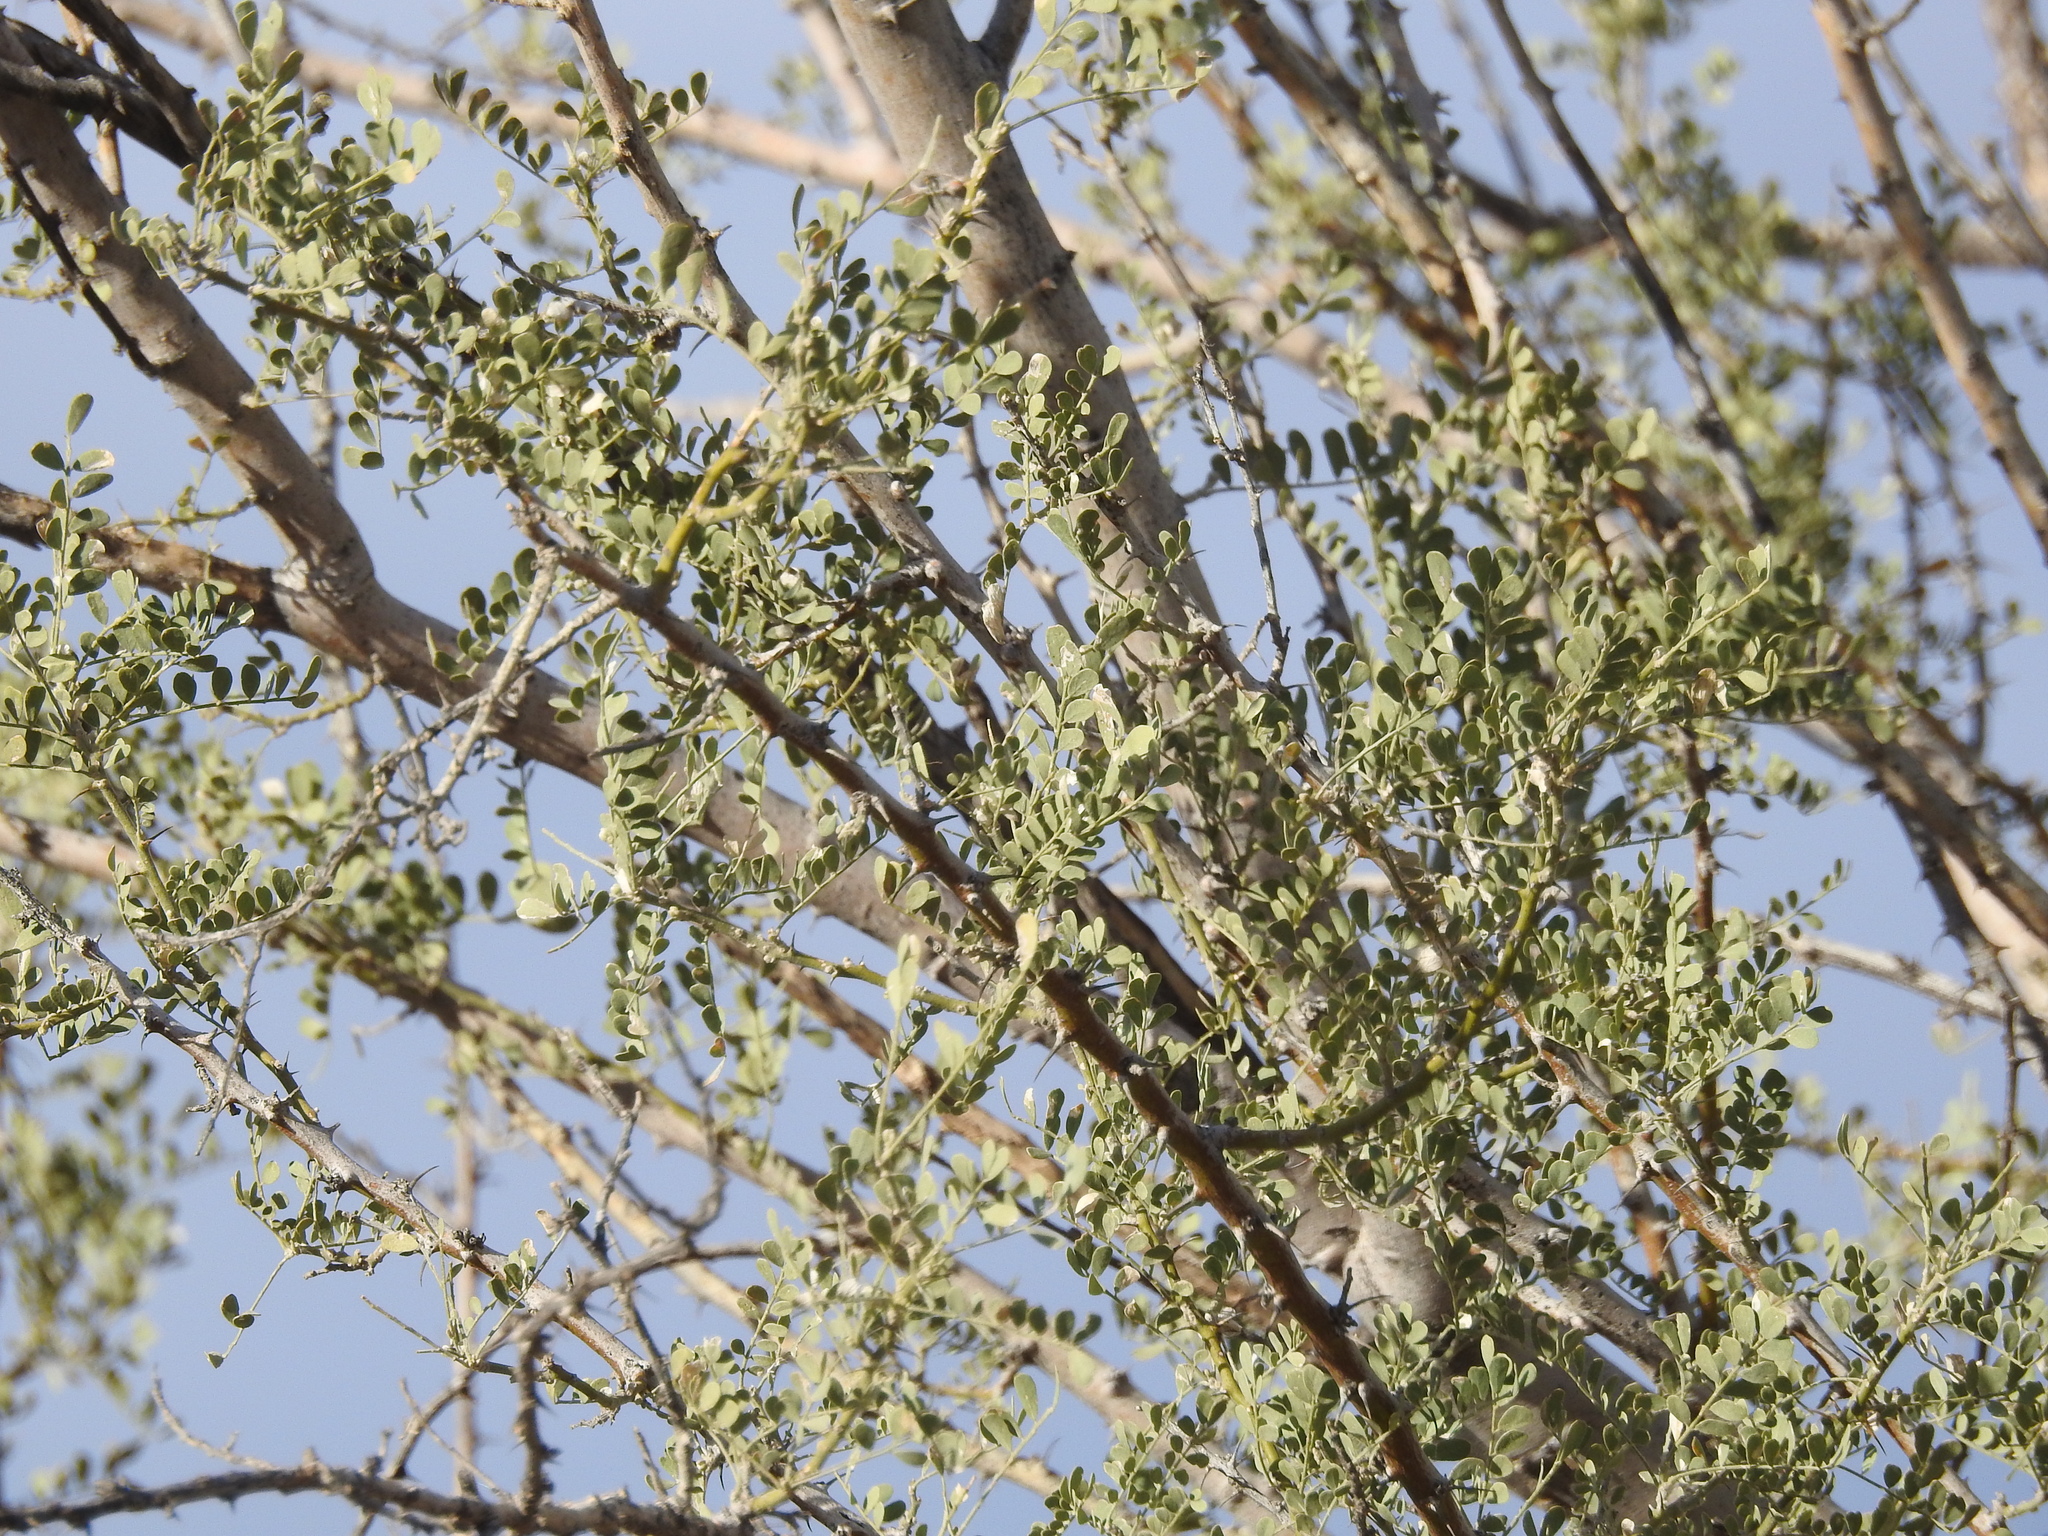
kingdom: Plantae
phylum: Tracheophyta
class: Magnoliopsida
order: Fabales
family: Fabaceae
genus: Olneya
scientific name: Olneya tesota
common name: Desert ironwood
